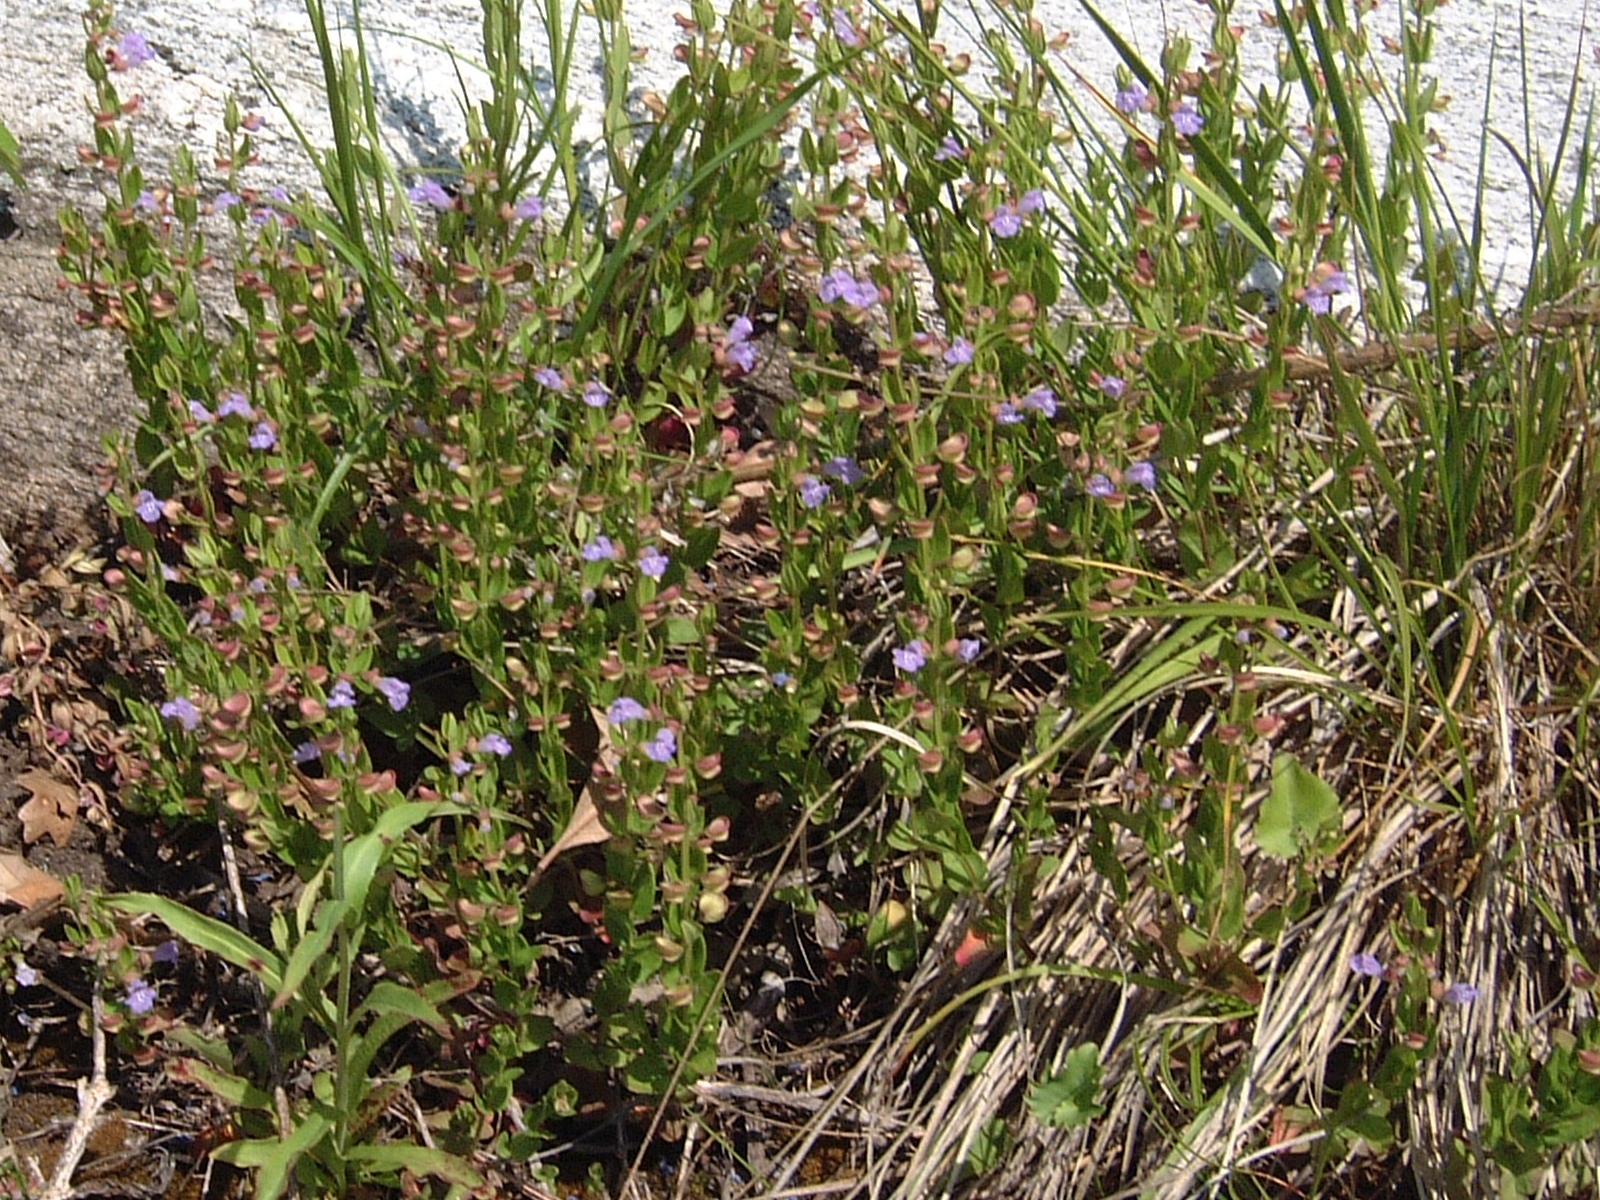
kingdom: Plantae
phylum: Tracheophyta
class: Magnoliopsida
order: Lamiales
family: Lamiaceae
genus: Scutellaria
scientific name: Scutellaria parvula
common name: Little scullcap
